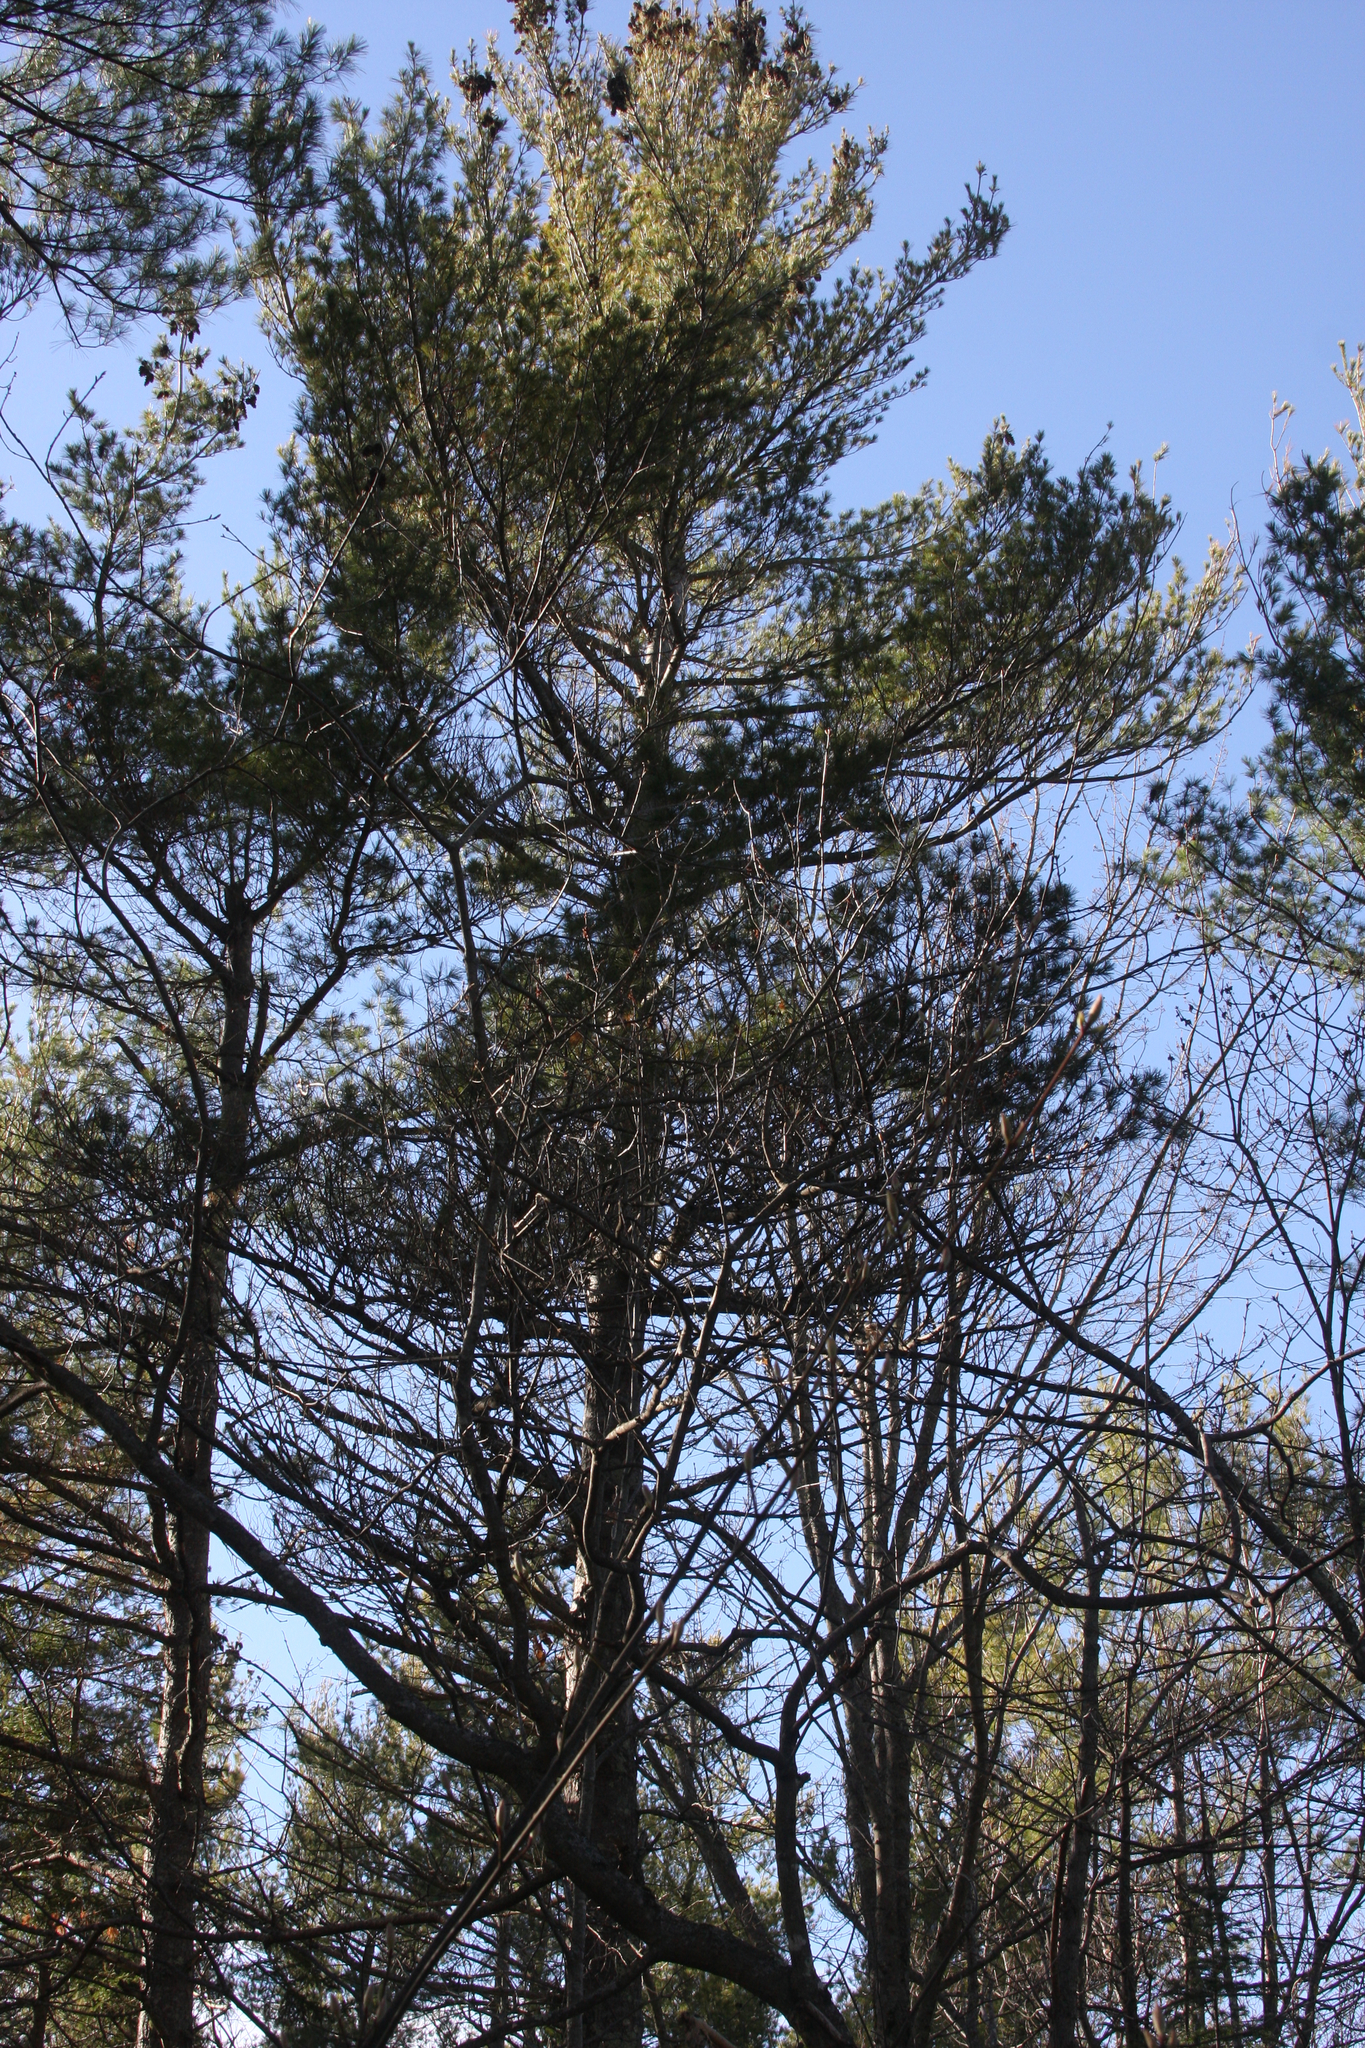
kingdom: Plantae
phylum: Tracheophyta
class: Pinopsida
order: Pinales
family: Pinaceae
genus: Pinus
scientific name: Pinus strobus
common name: Weymouth pine
